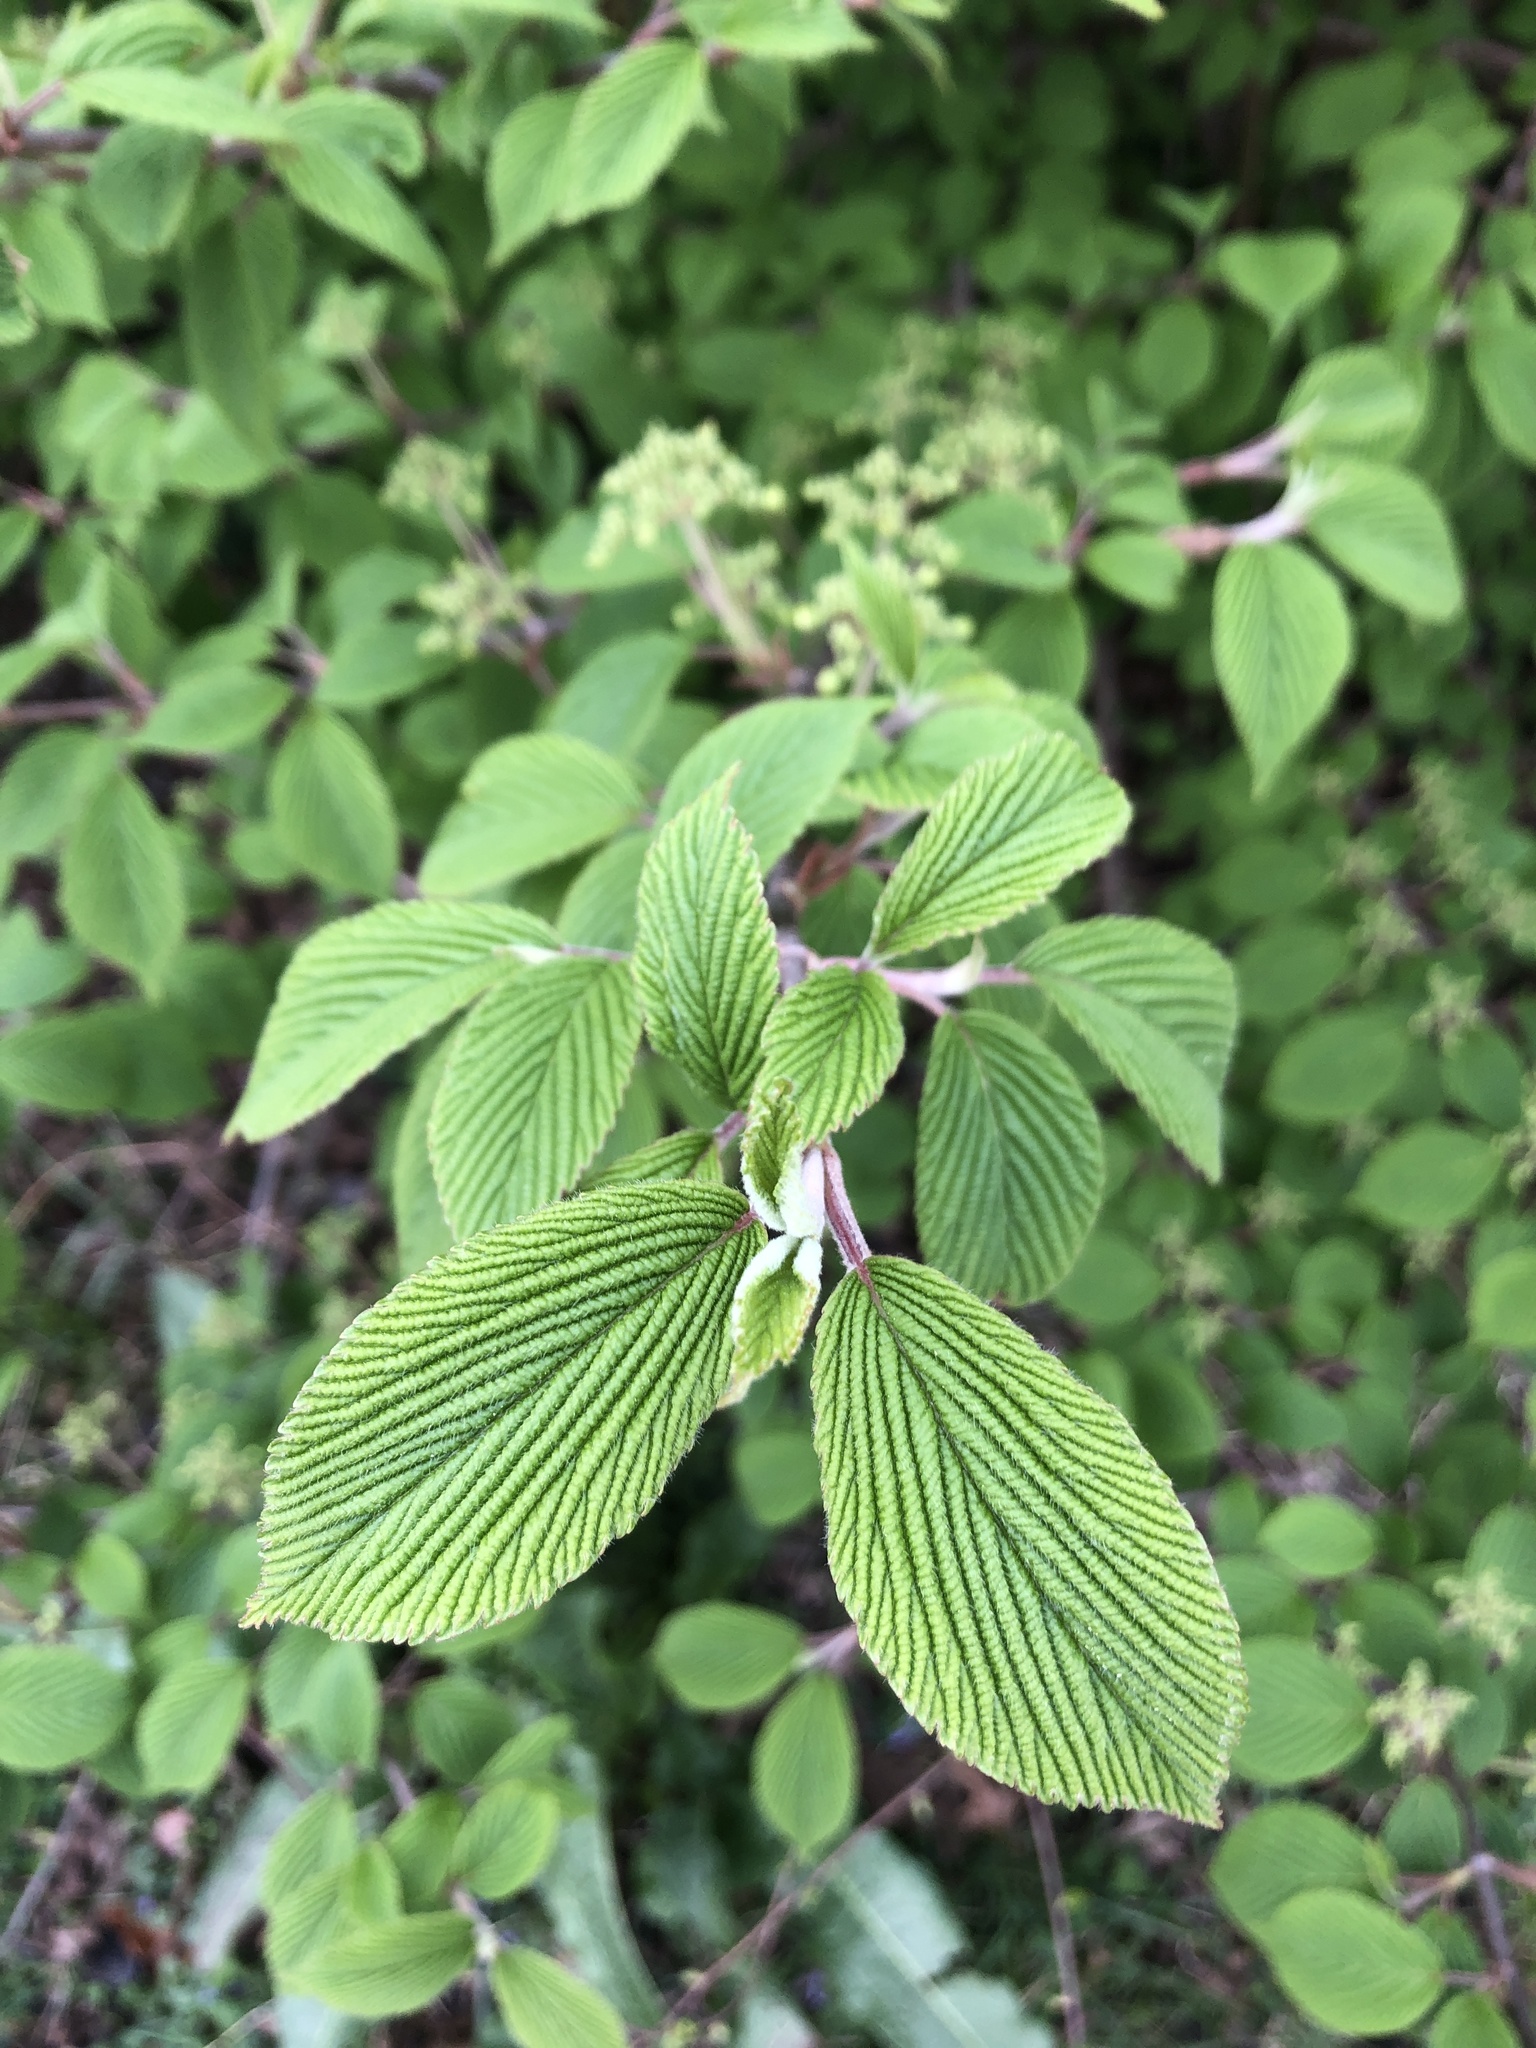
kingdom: Plantae
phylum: Tracheophyta
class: Magnoliopsida
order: Dipsacales
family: Viburnaceae
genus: Viburnum
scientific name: Viburnum plicatum
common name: Japanese snowball
